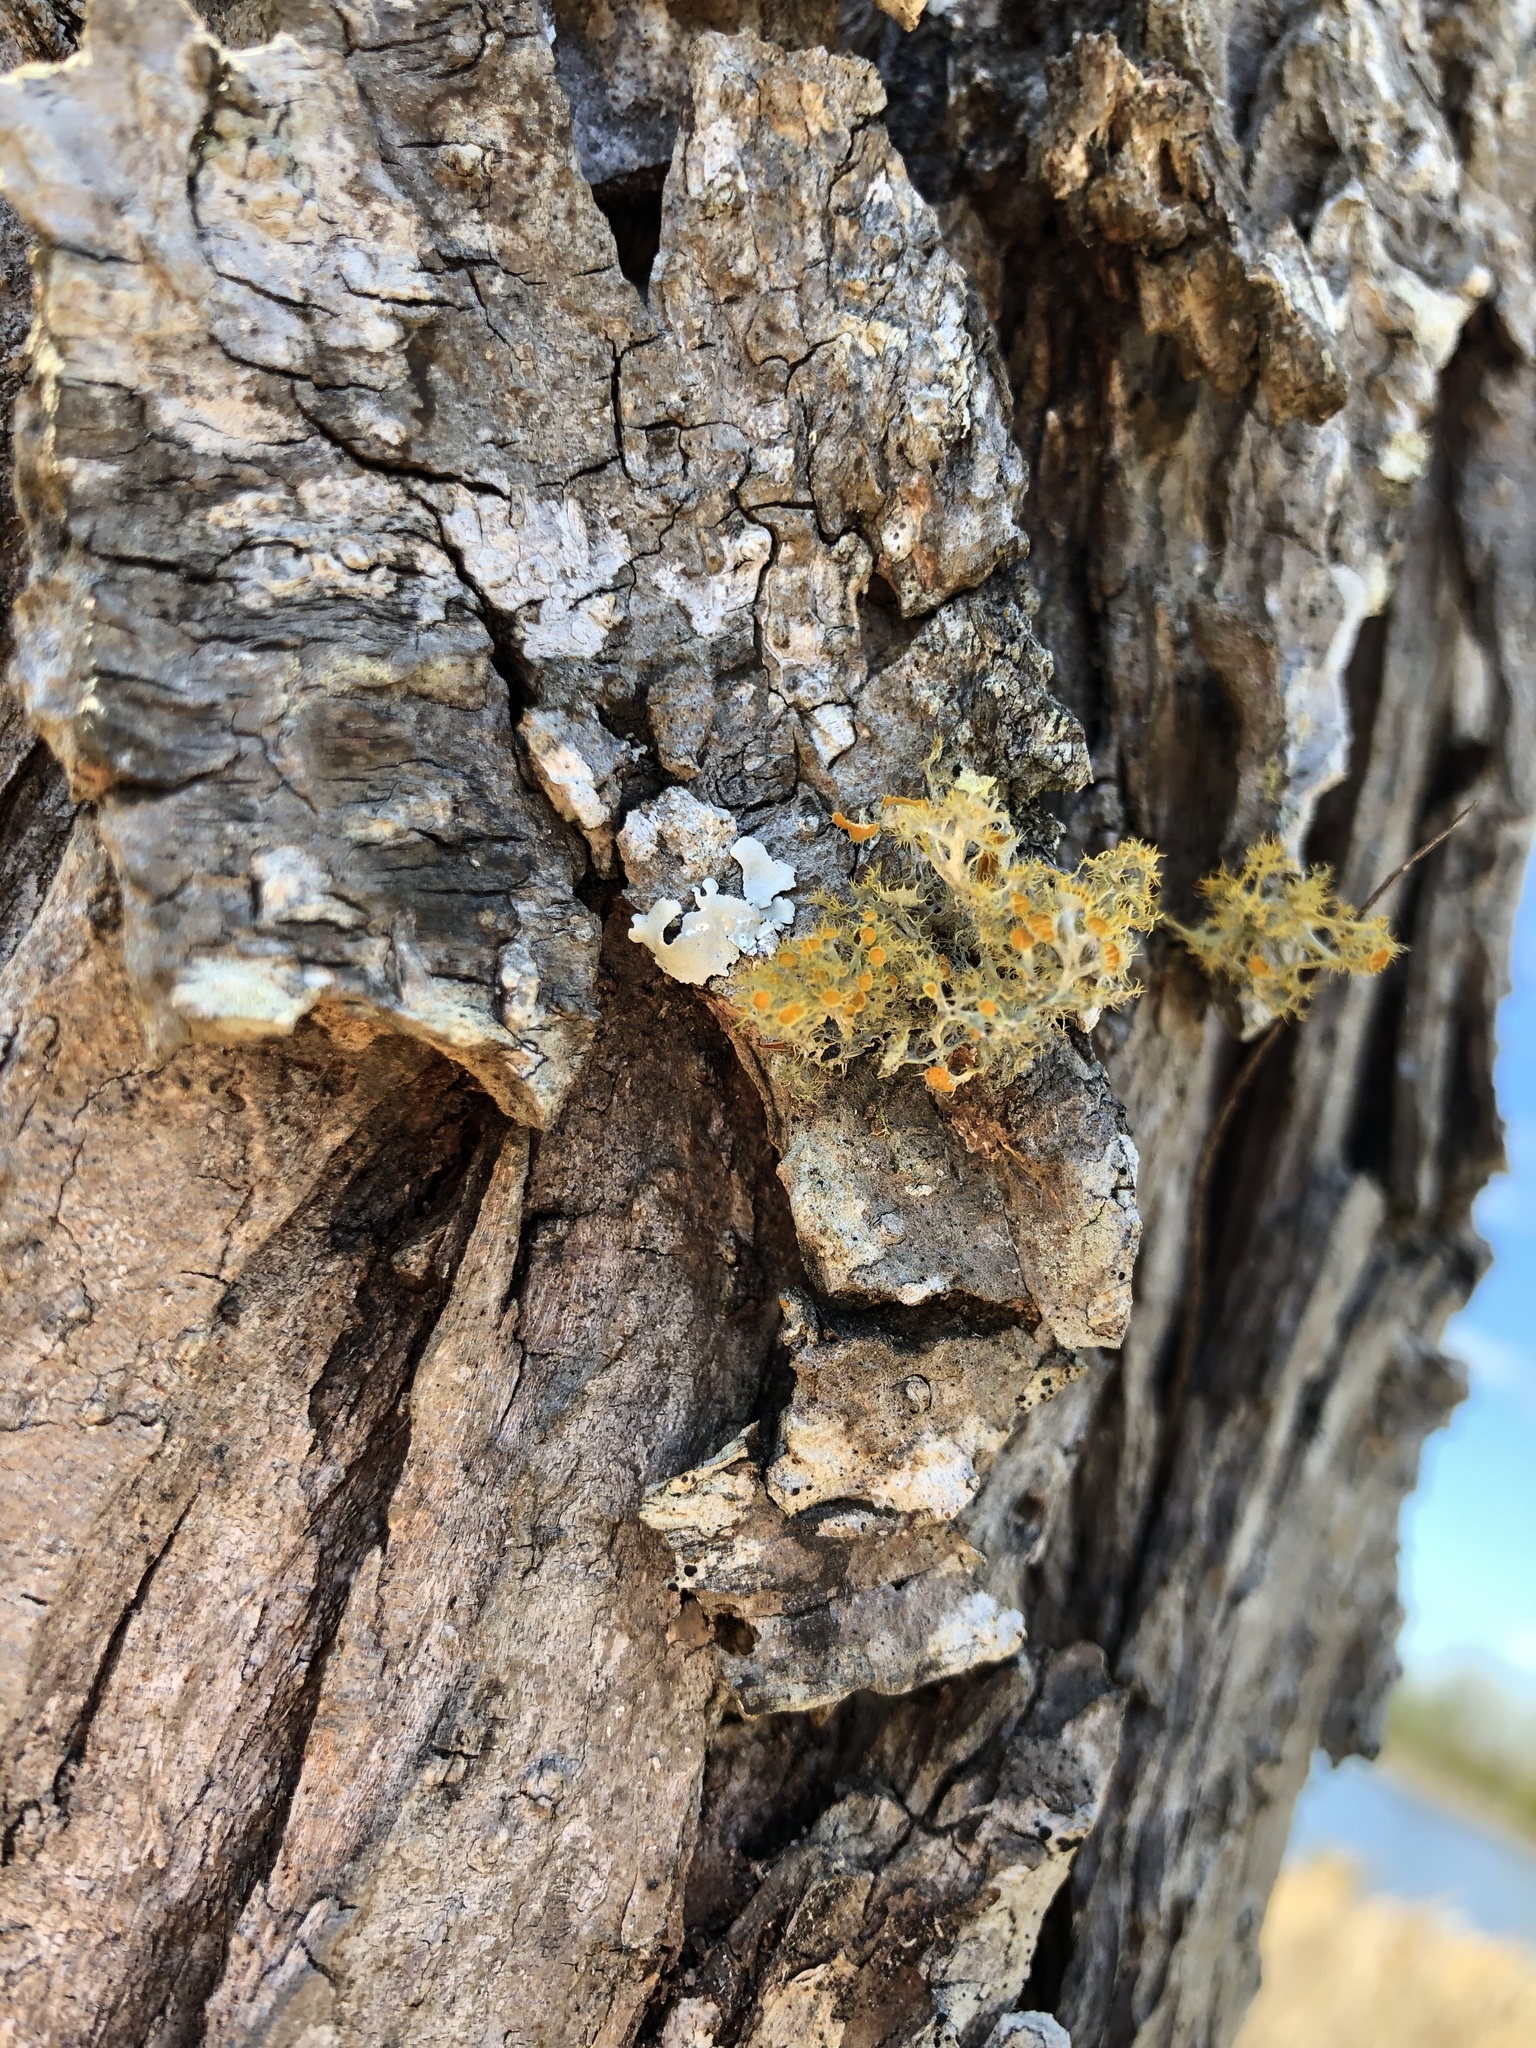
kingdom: Fungi
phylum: Ascomycota
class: Lecanoromycetes
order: Teloschistales
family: Teloschistaceae
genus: Niorma
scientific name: Niorma chrysophthalma
